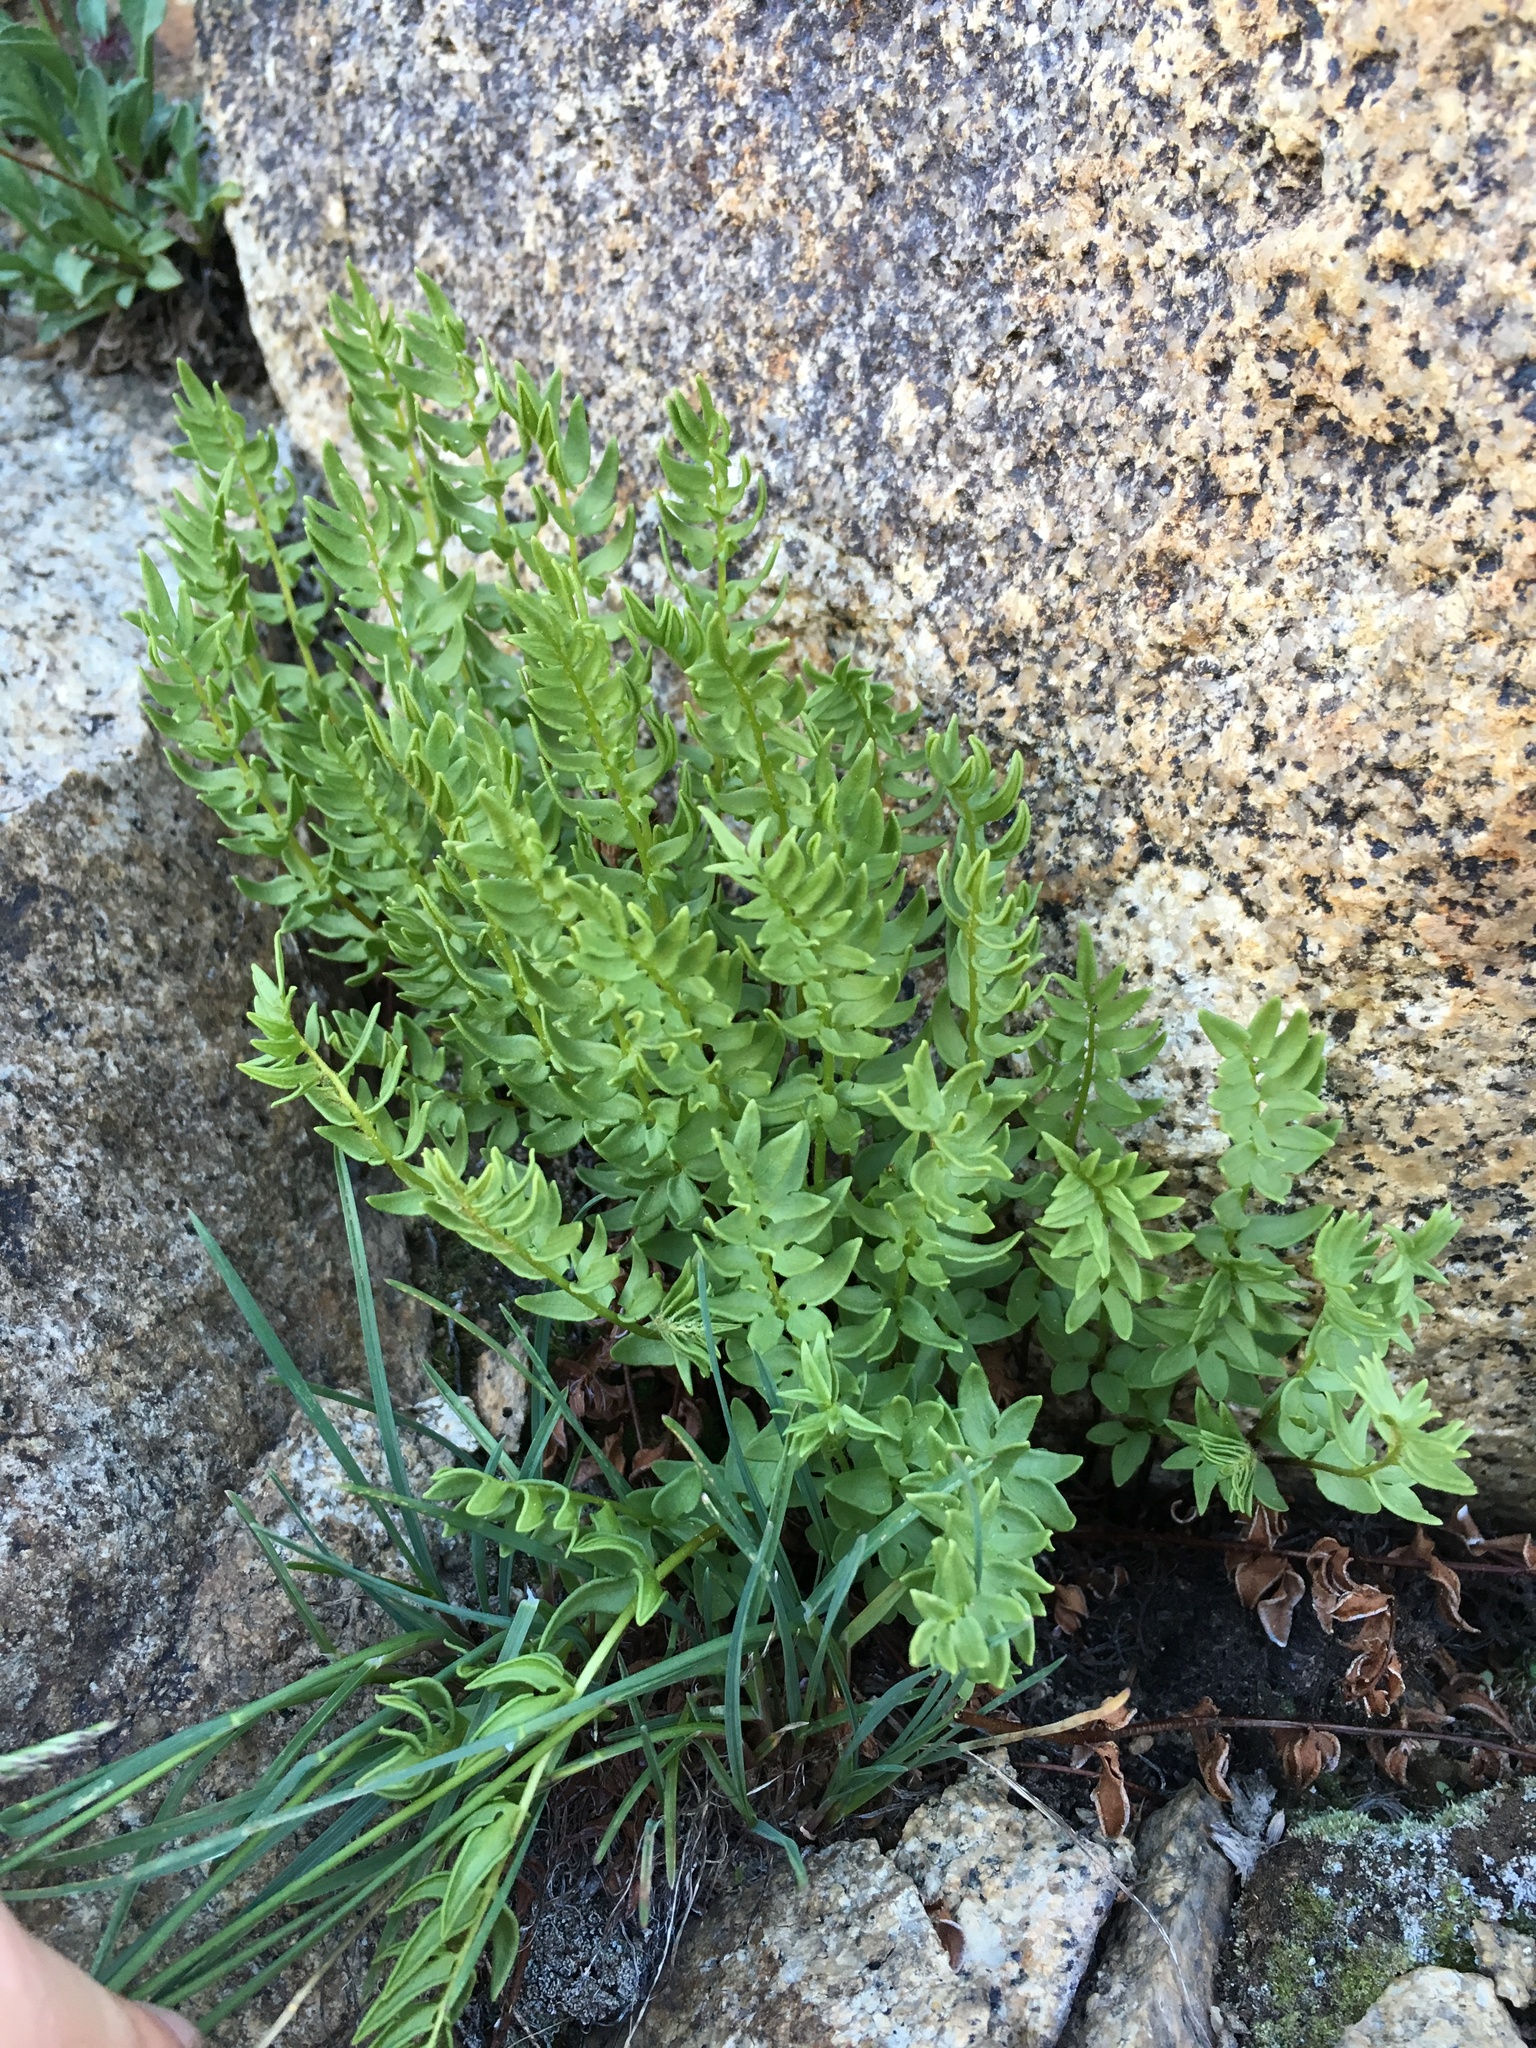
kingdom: Plantae
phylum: Tracheophyta
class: Polypodiopsida
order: Polypodiales
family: Pteridaceae
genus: Pellaea
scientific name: Pellaea breweri
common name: Brewer's cliffbrake
